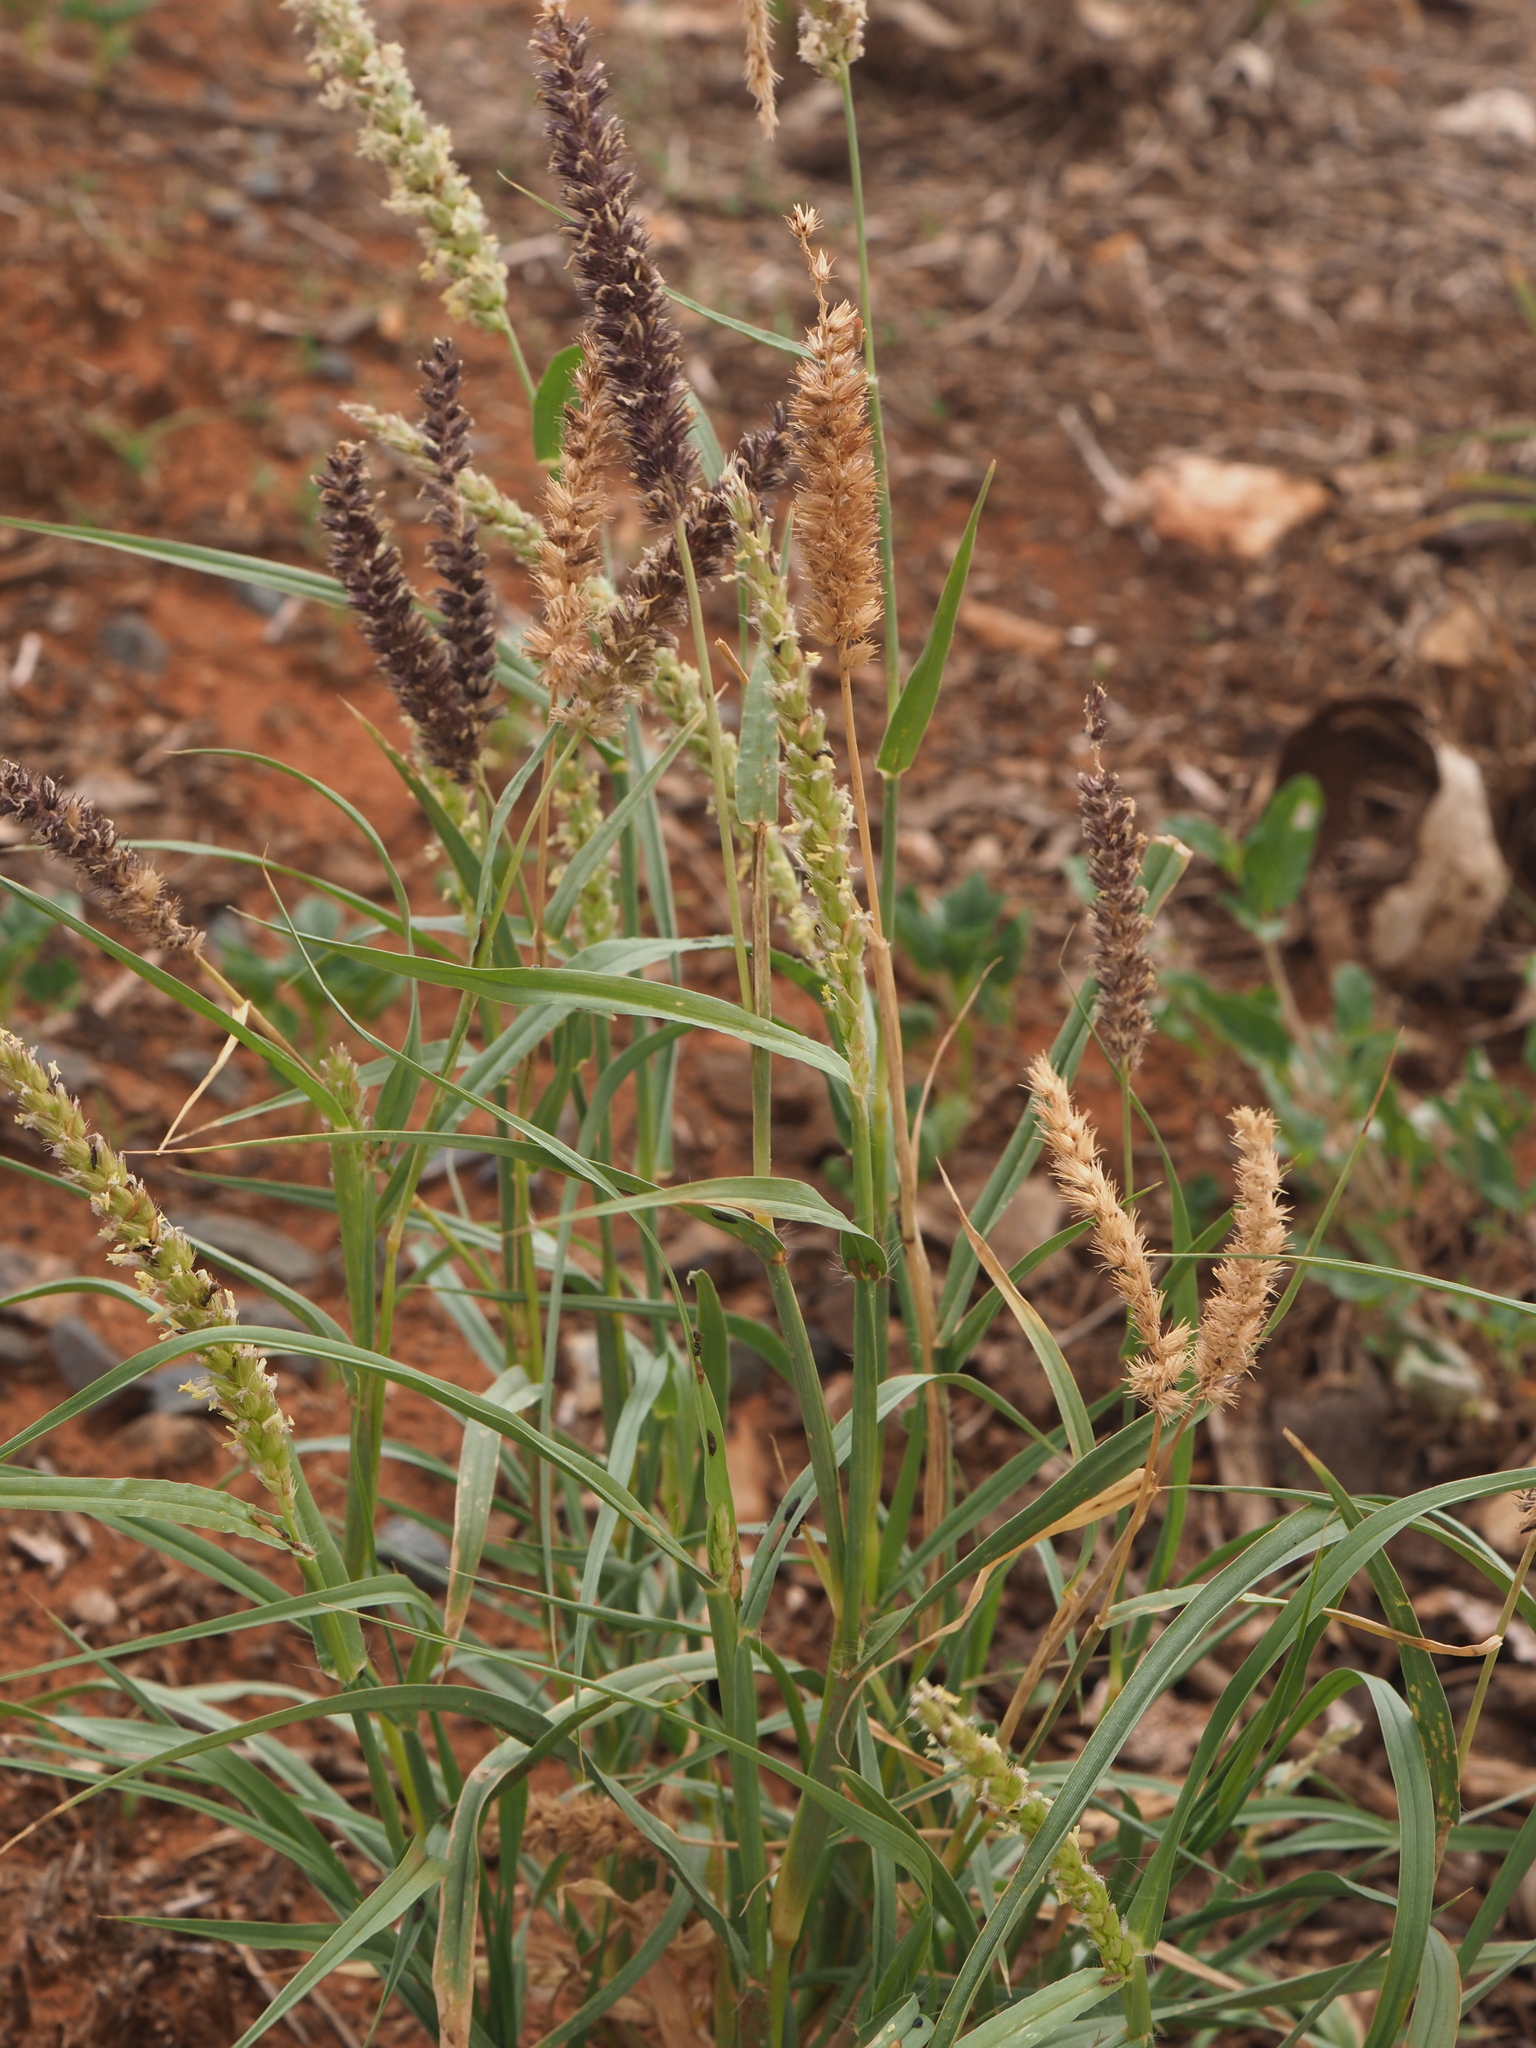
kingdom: Plantae
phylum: Tracheophyta
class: Liliopsida
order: Poales
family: Poaceae
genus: Cenchrus
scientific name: Cenchrus setigerus
